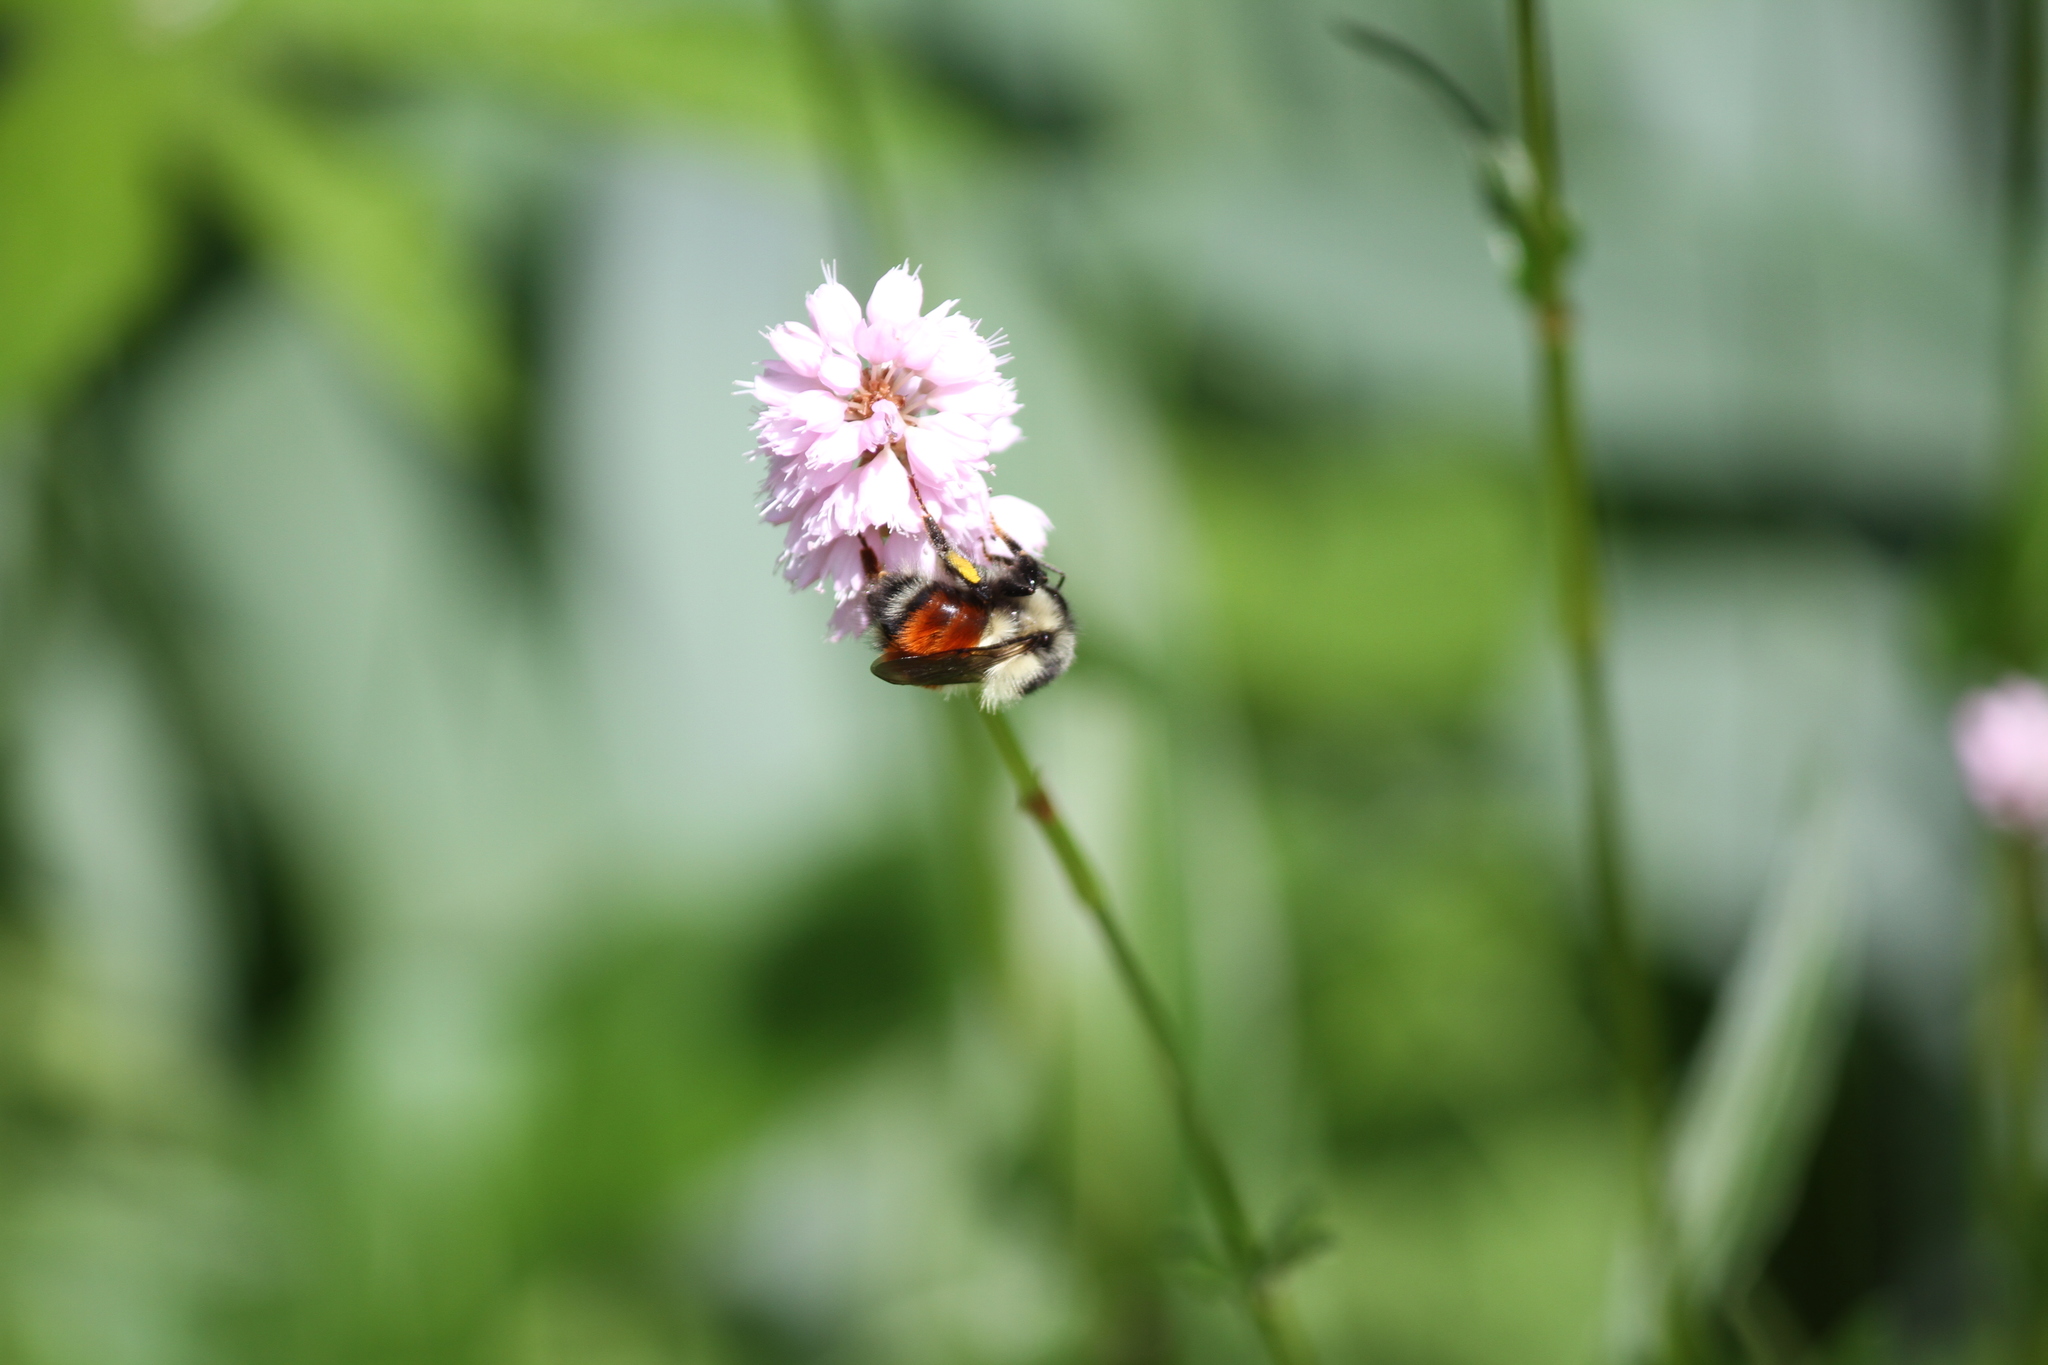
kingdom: Animalia
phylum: Arthropoda
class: Insecta
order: Hymenoptera
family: Apidae
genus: Bombus
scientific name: Bombus melanopygus
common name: Black tail bumble bee
